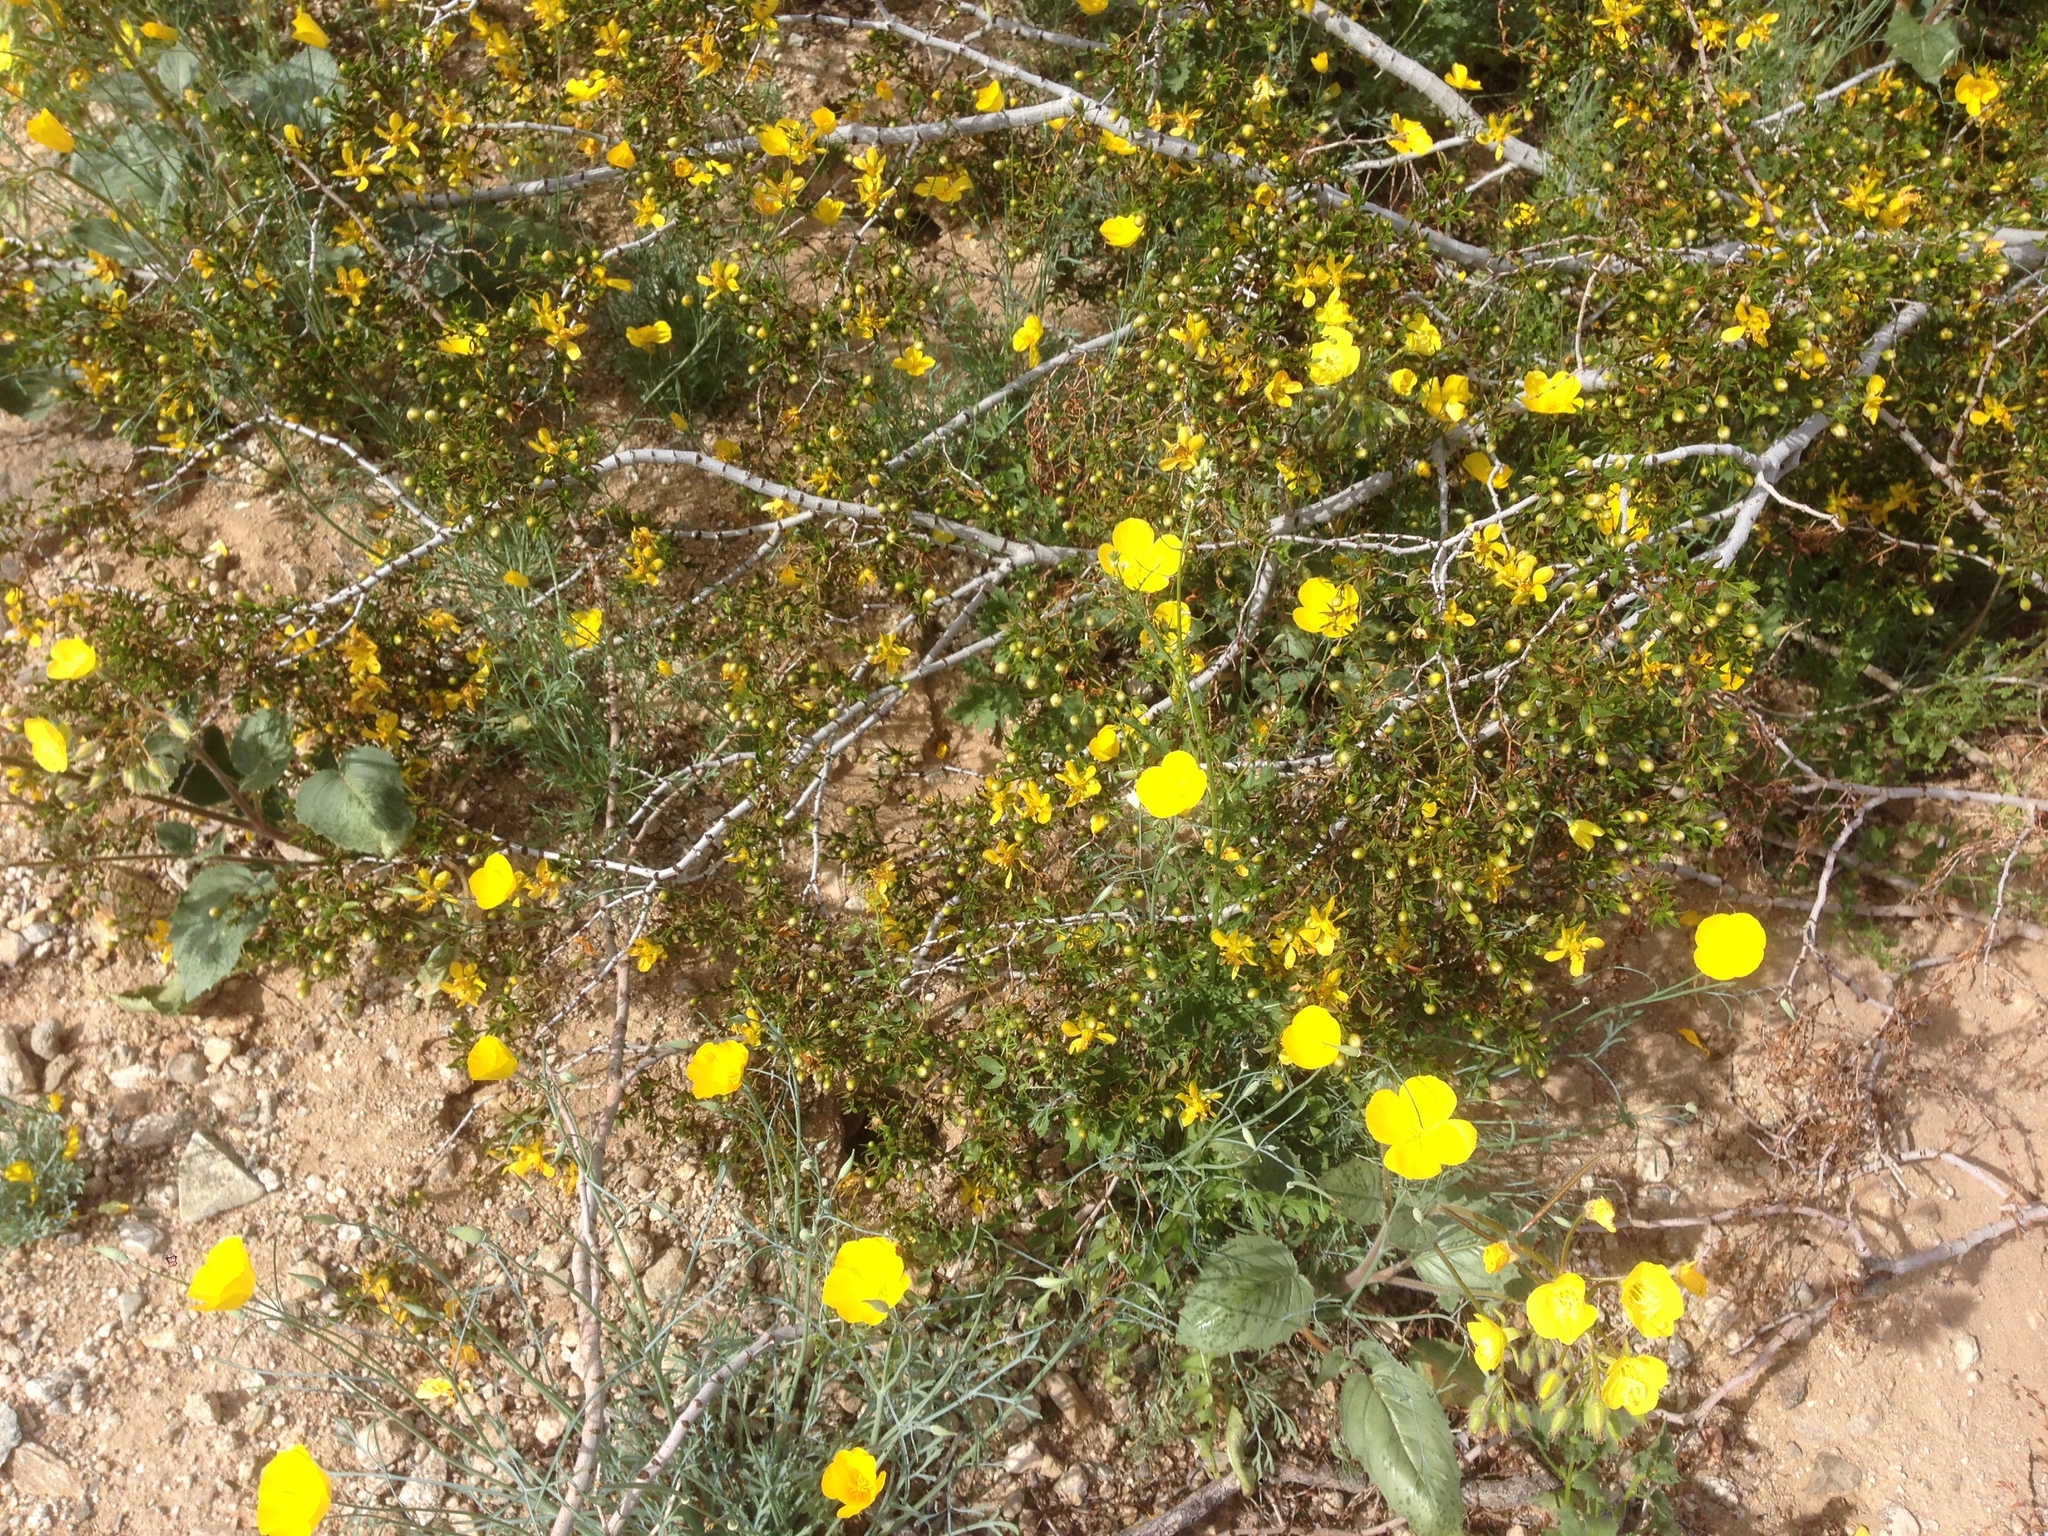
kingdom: Plantae
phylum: Tracheophyta
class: Magnoliopsida
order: Zygophyllales
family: Zygophyllaceae
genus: Larrea
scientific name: Larrea tridentata
